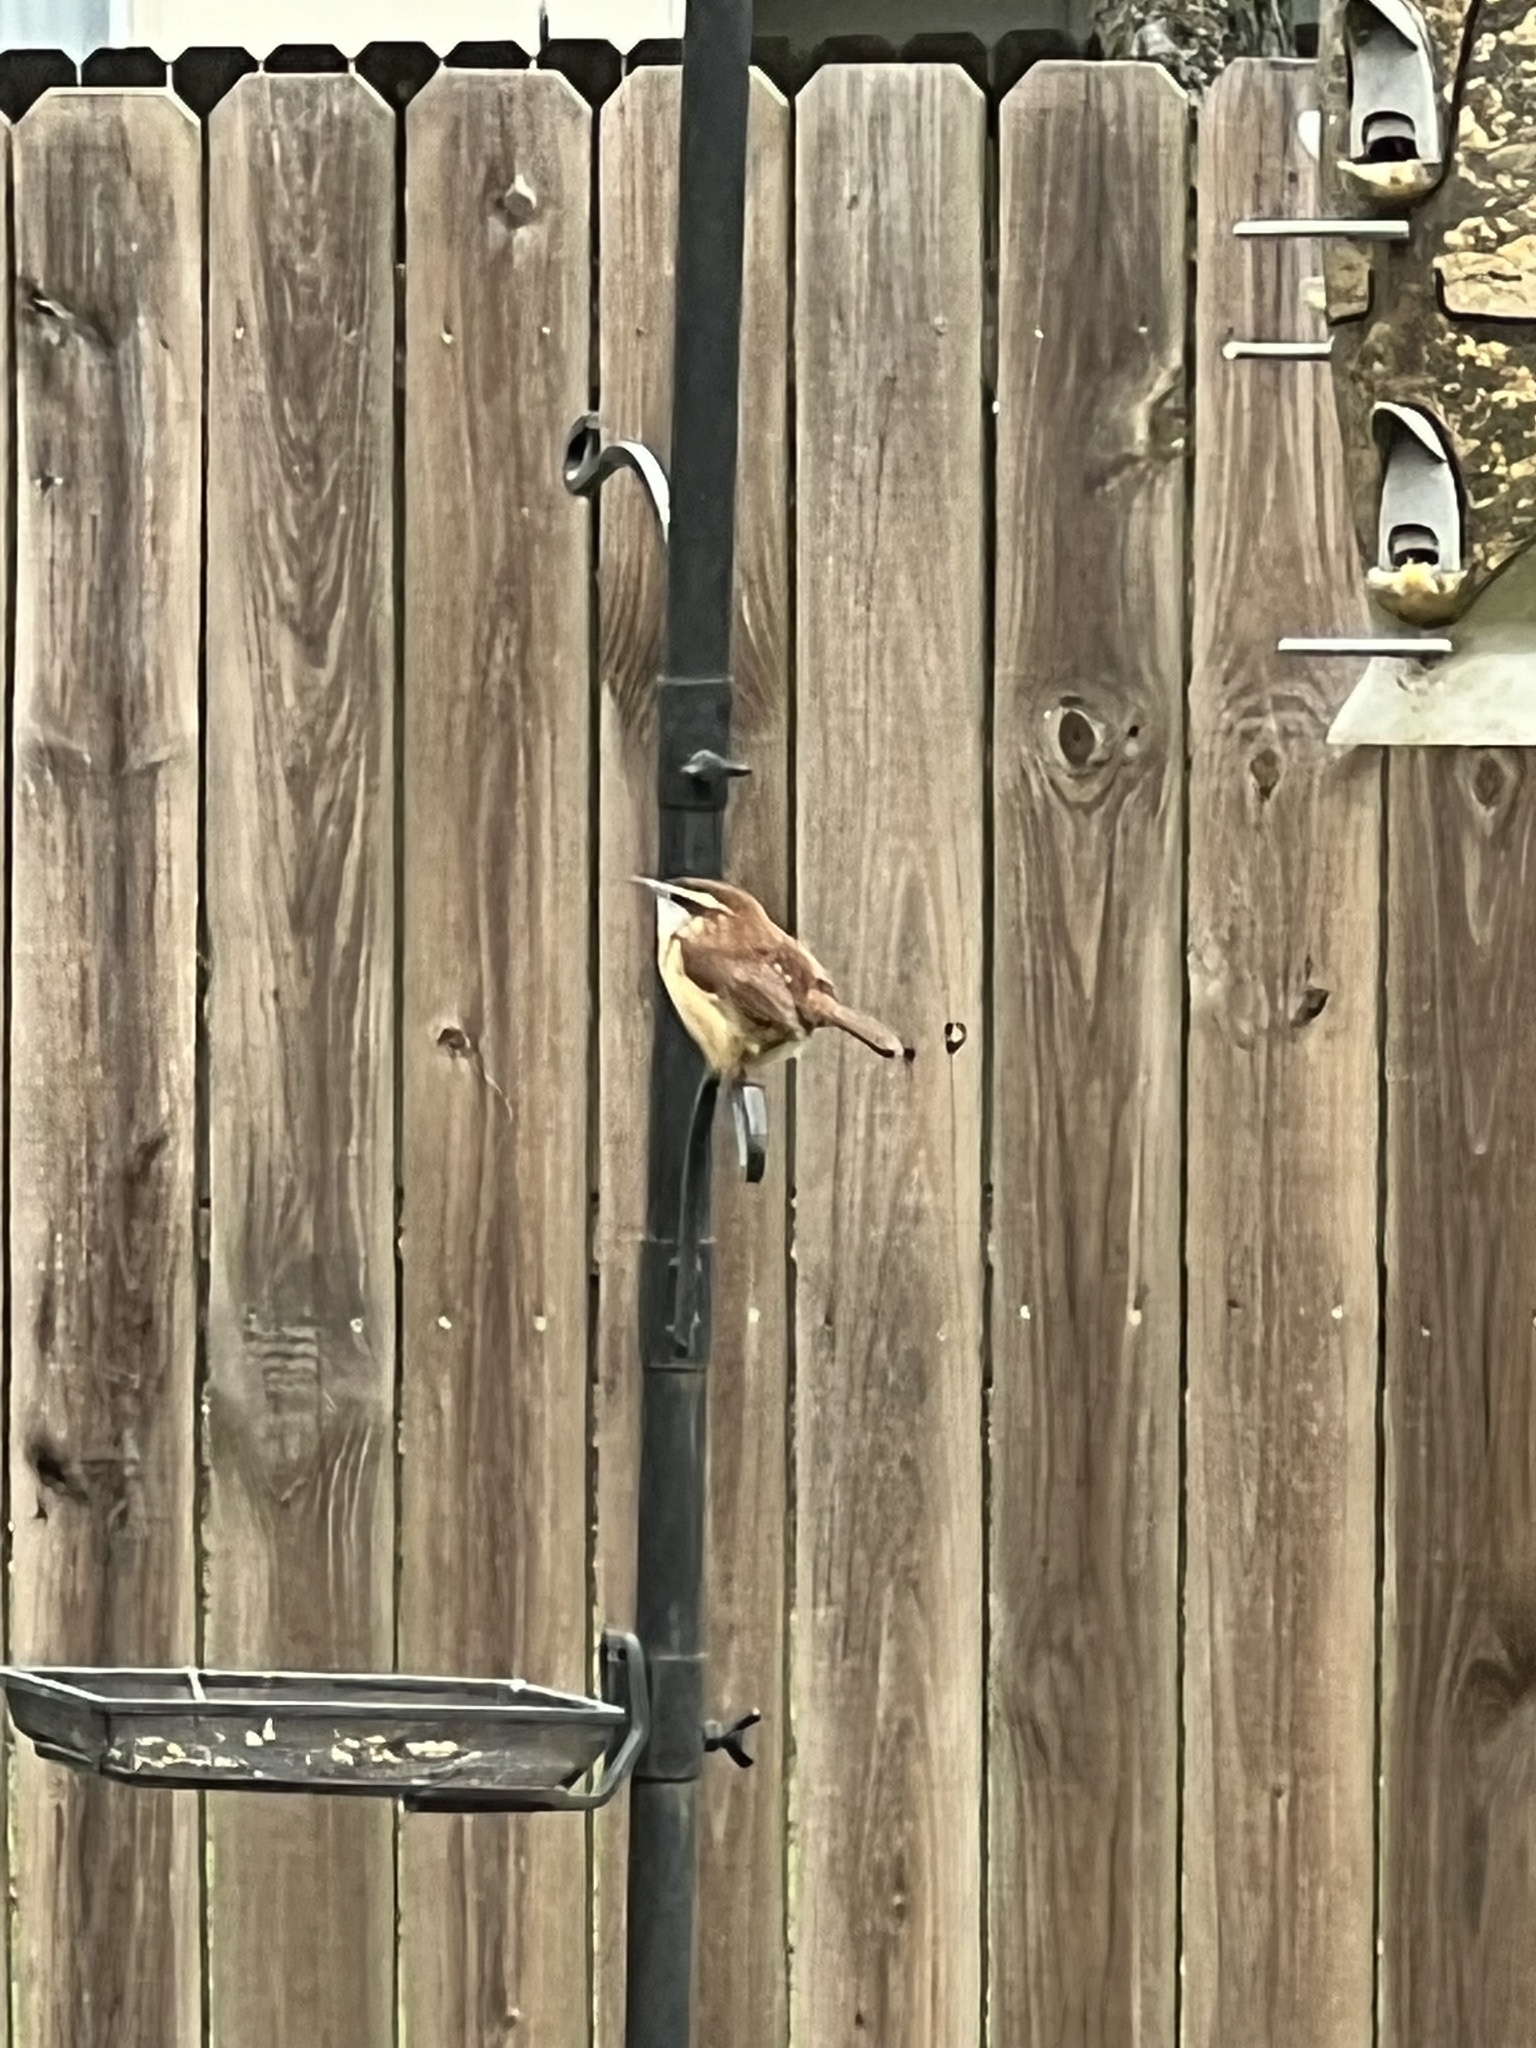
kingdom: Animalia
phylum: Chordata
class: Aves
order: Passeriformes
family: Troglodytidae
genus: Thryothorus
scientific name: Thryothorus ludovicianus
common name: Carolina wren
